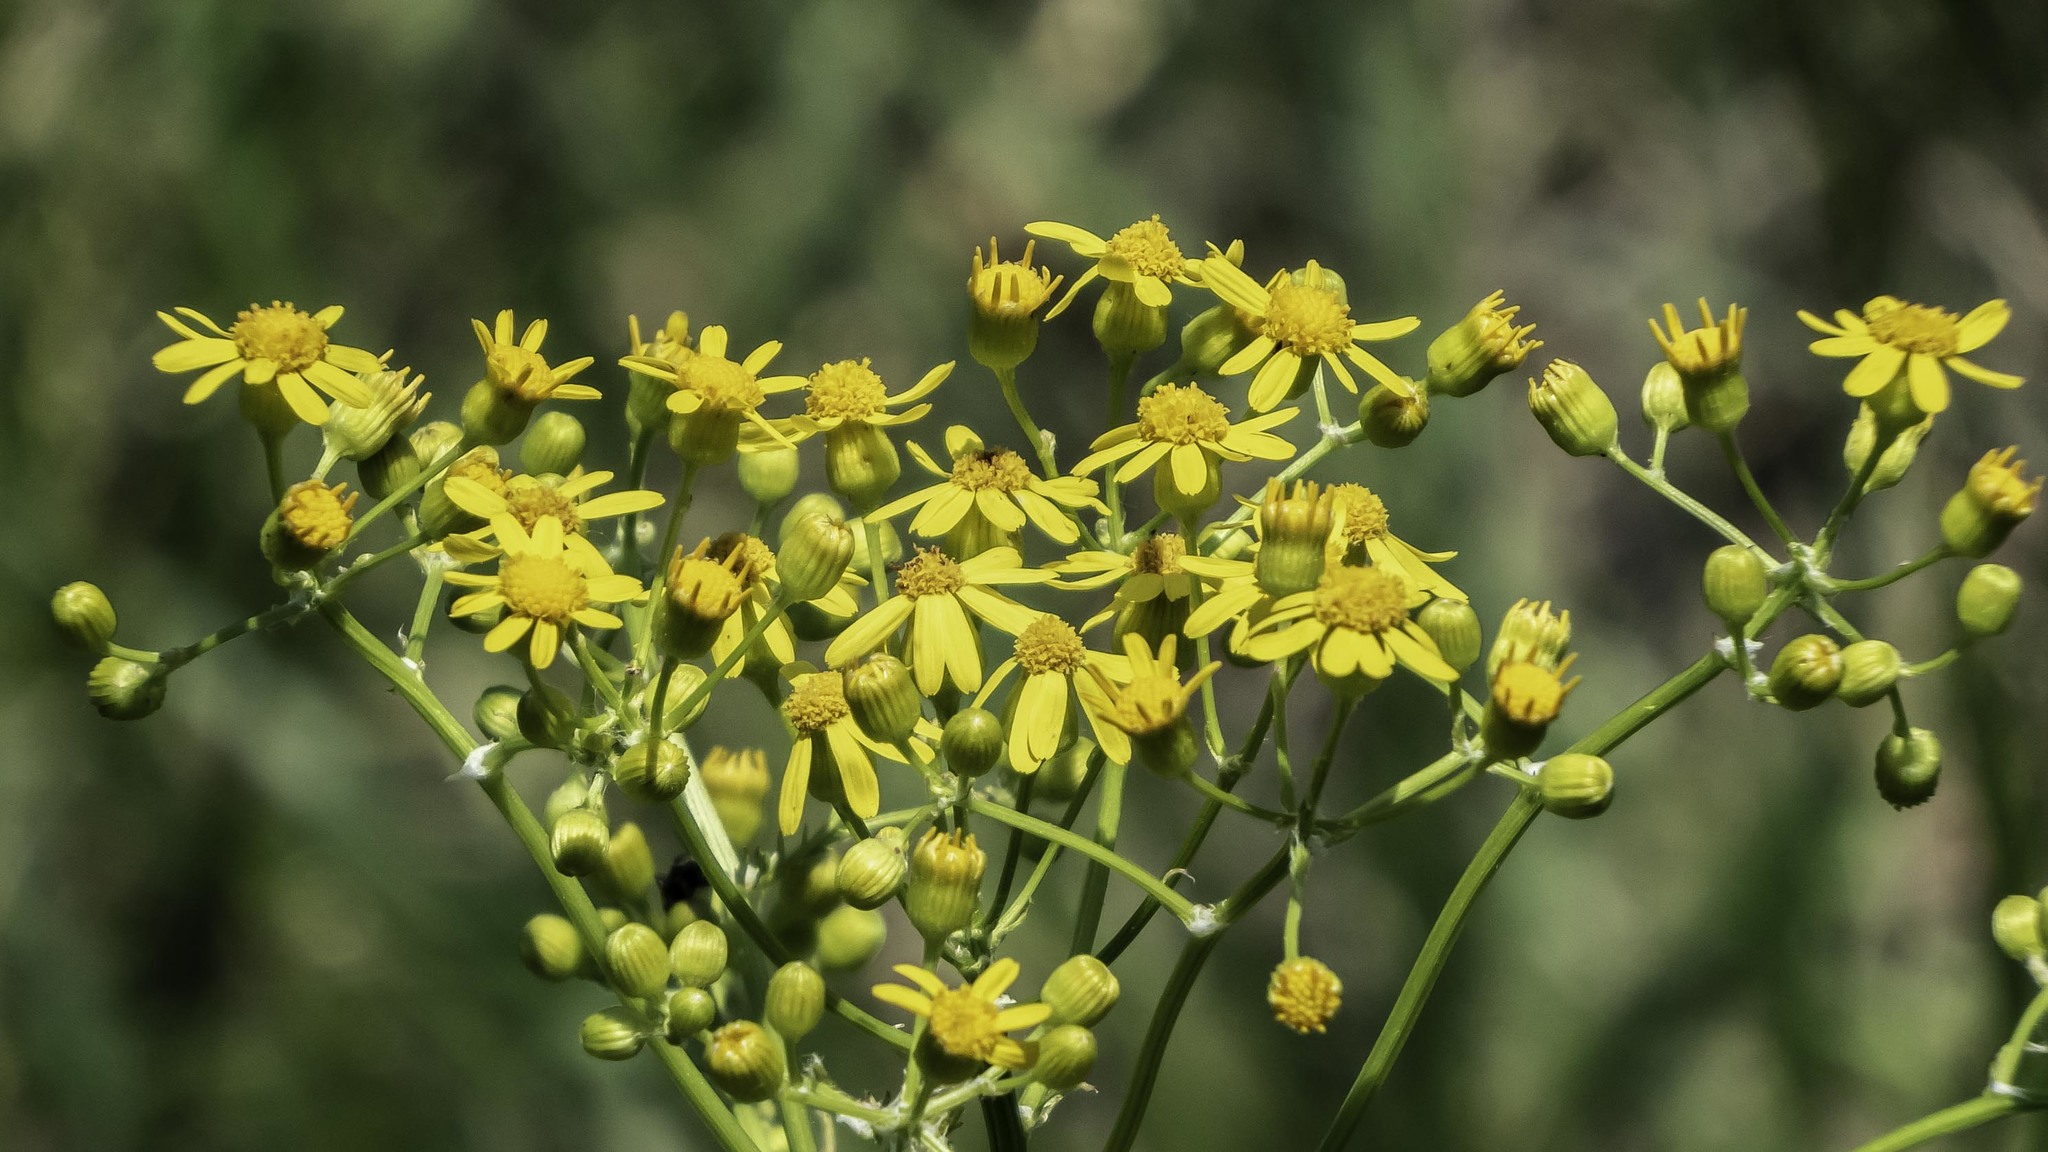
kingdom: Plantae
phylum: Tracheophyta
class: Magnoliopsida
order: Asterales
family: Asteraceae
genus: Packera
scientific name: Packera anonyma
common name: Small ragwort
